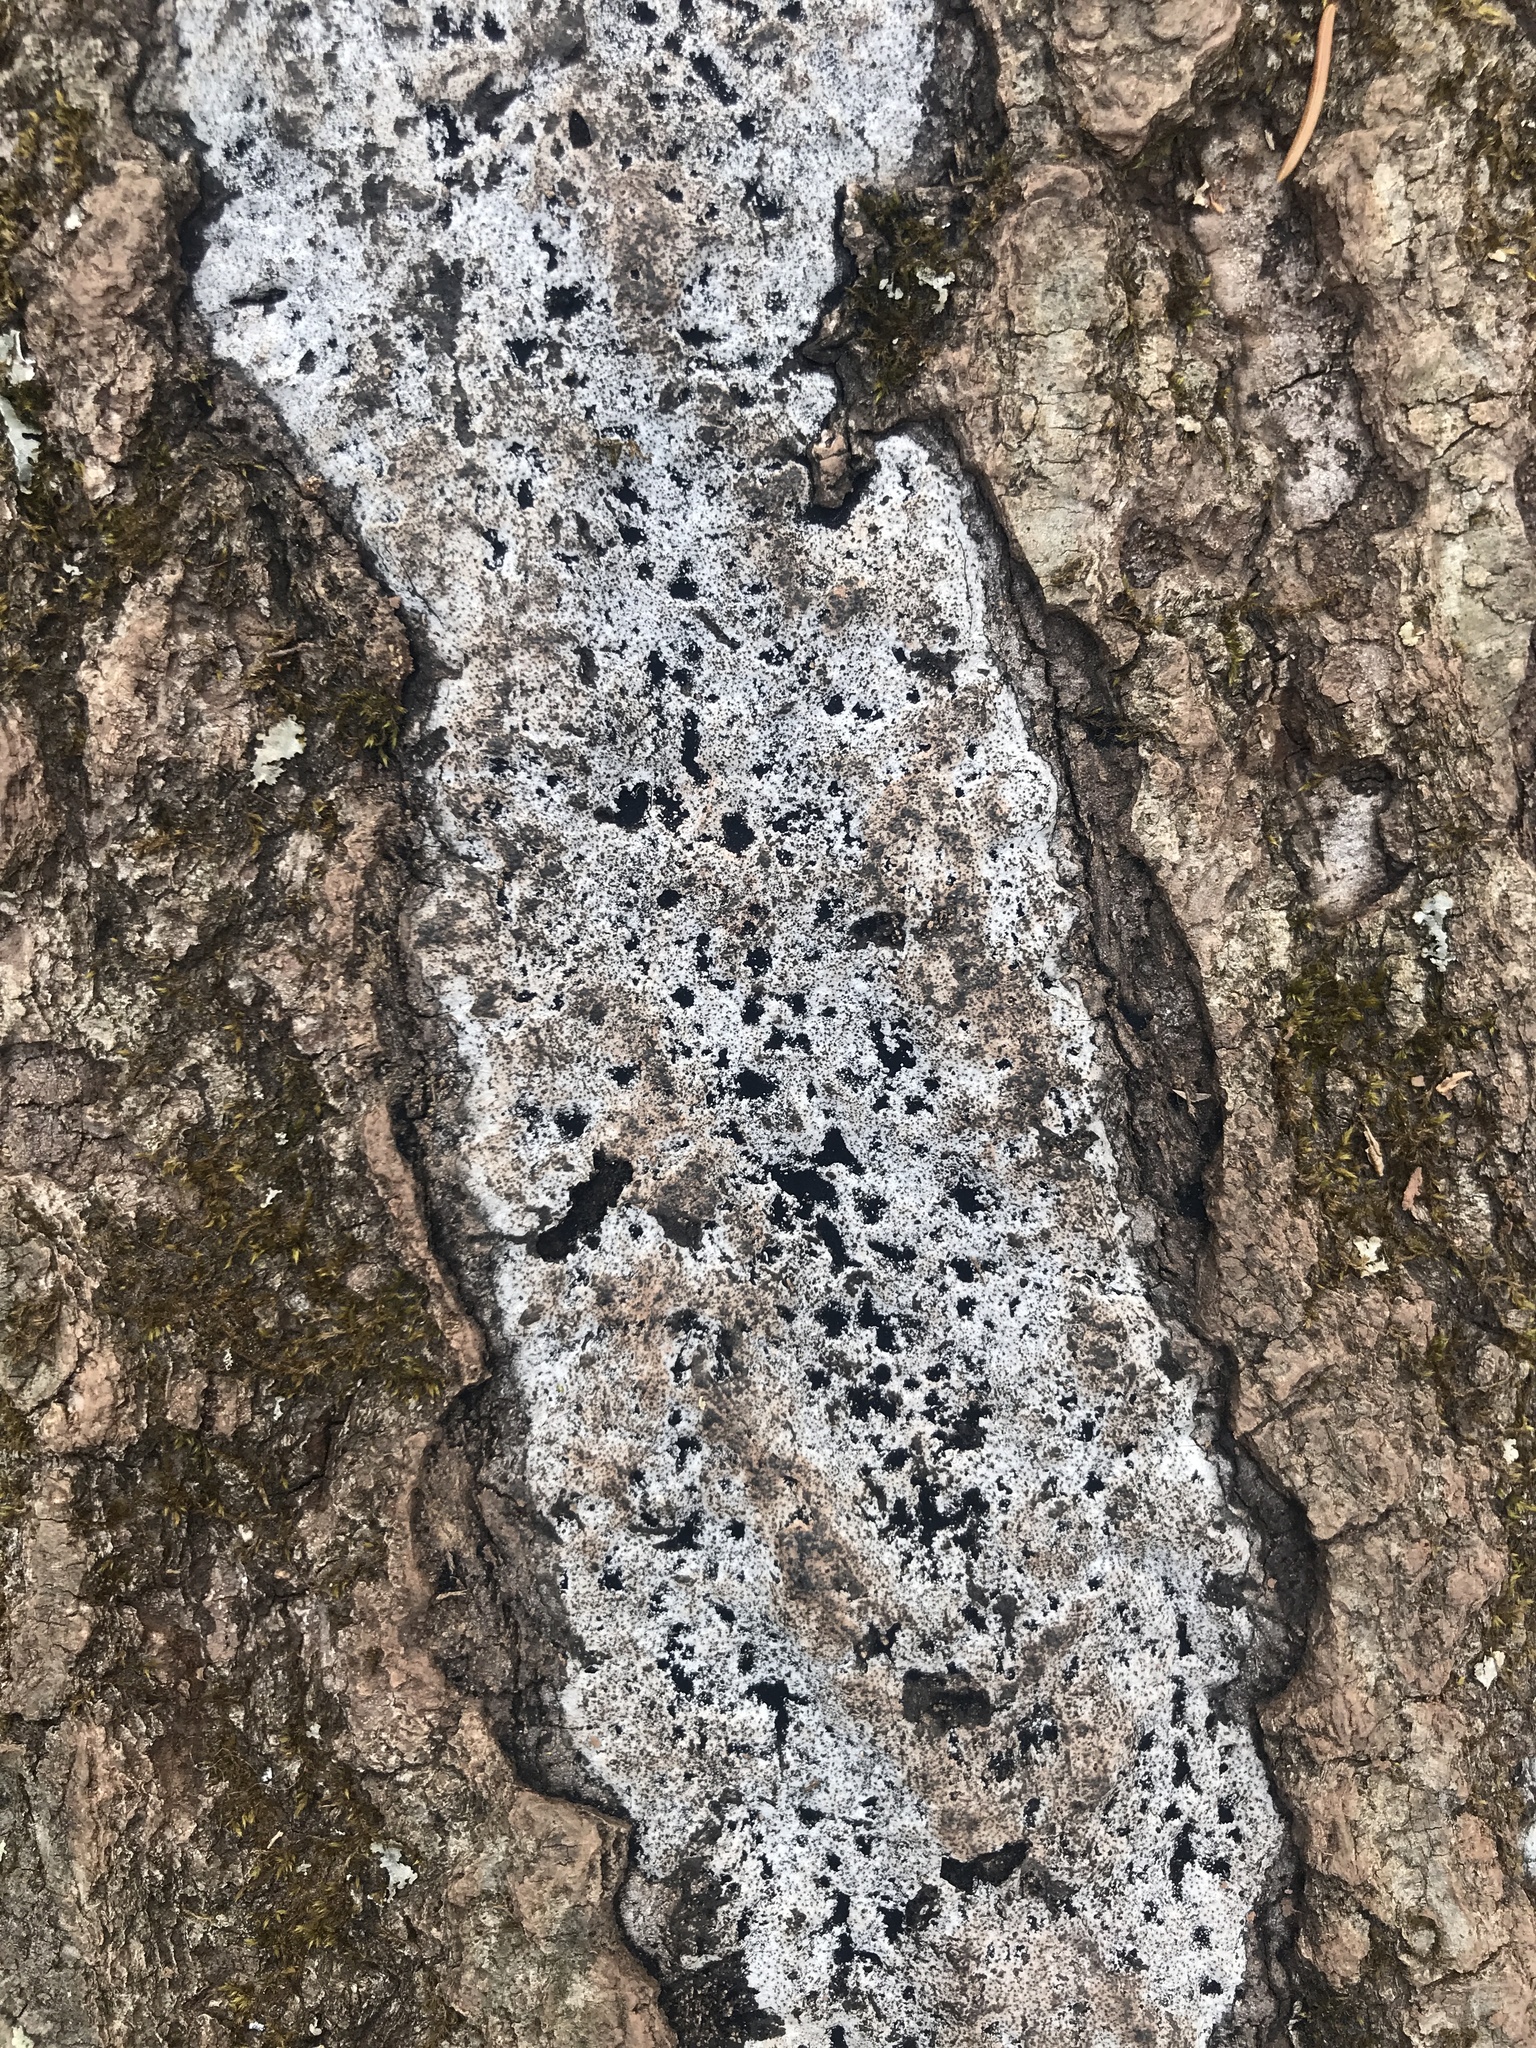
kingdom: Fungi
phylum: Ascomycota
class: Sordariomycetes
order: Xylariales
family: Graphostromataceae
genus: Biscogniauxia
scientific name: Biscogniauxia atropunctata
